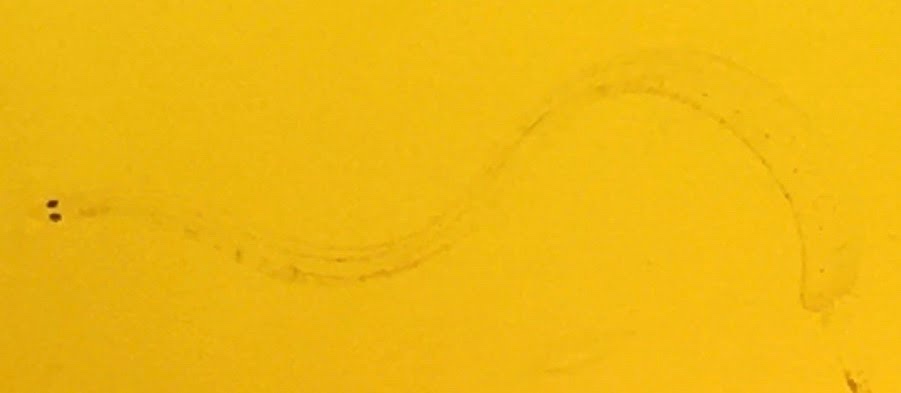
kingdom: Animalia
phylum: Chordata
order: Anguilliformes
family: Anguillidae
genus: Anguilla
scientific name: Anguilla rostrata
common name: American eel
